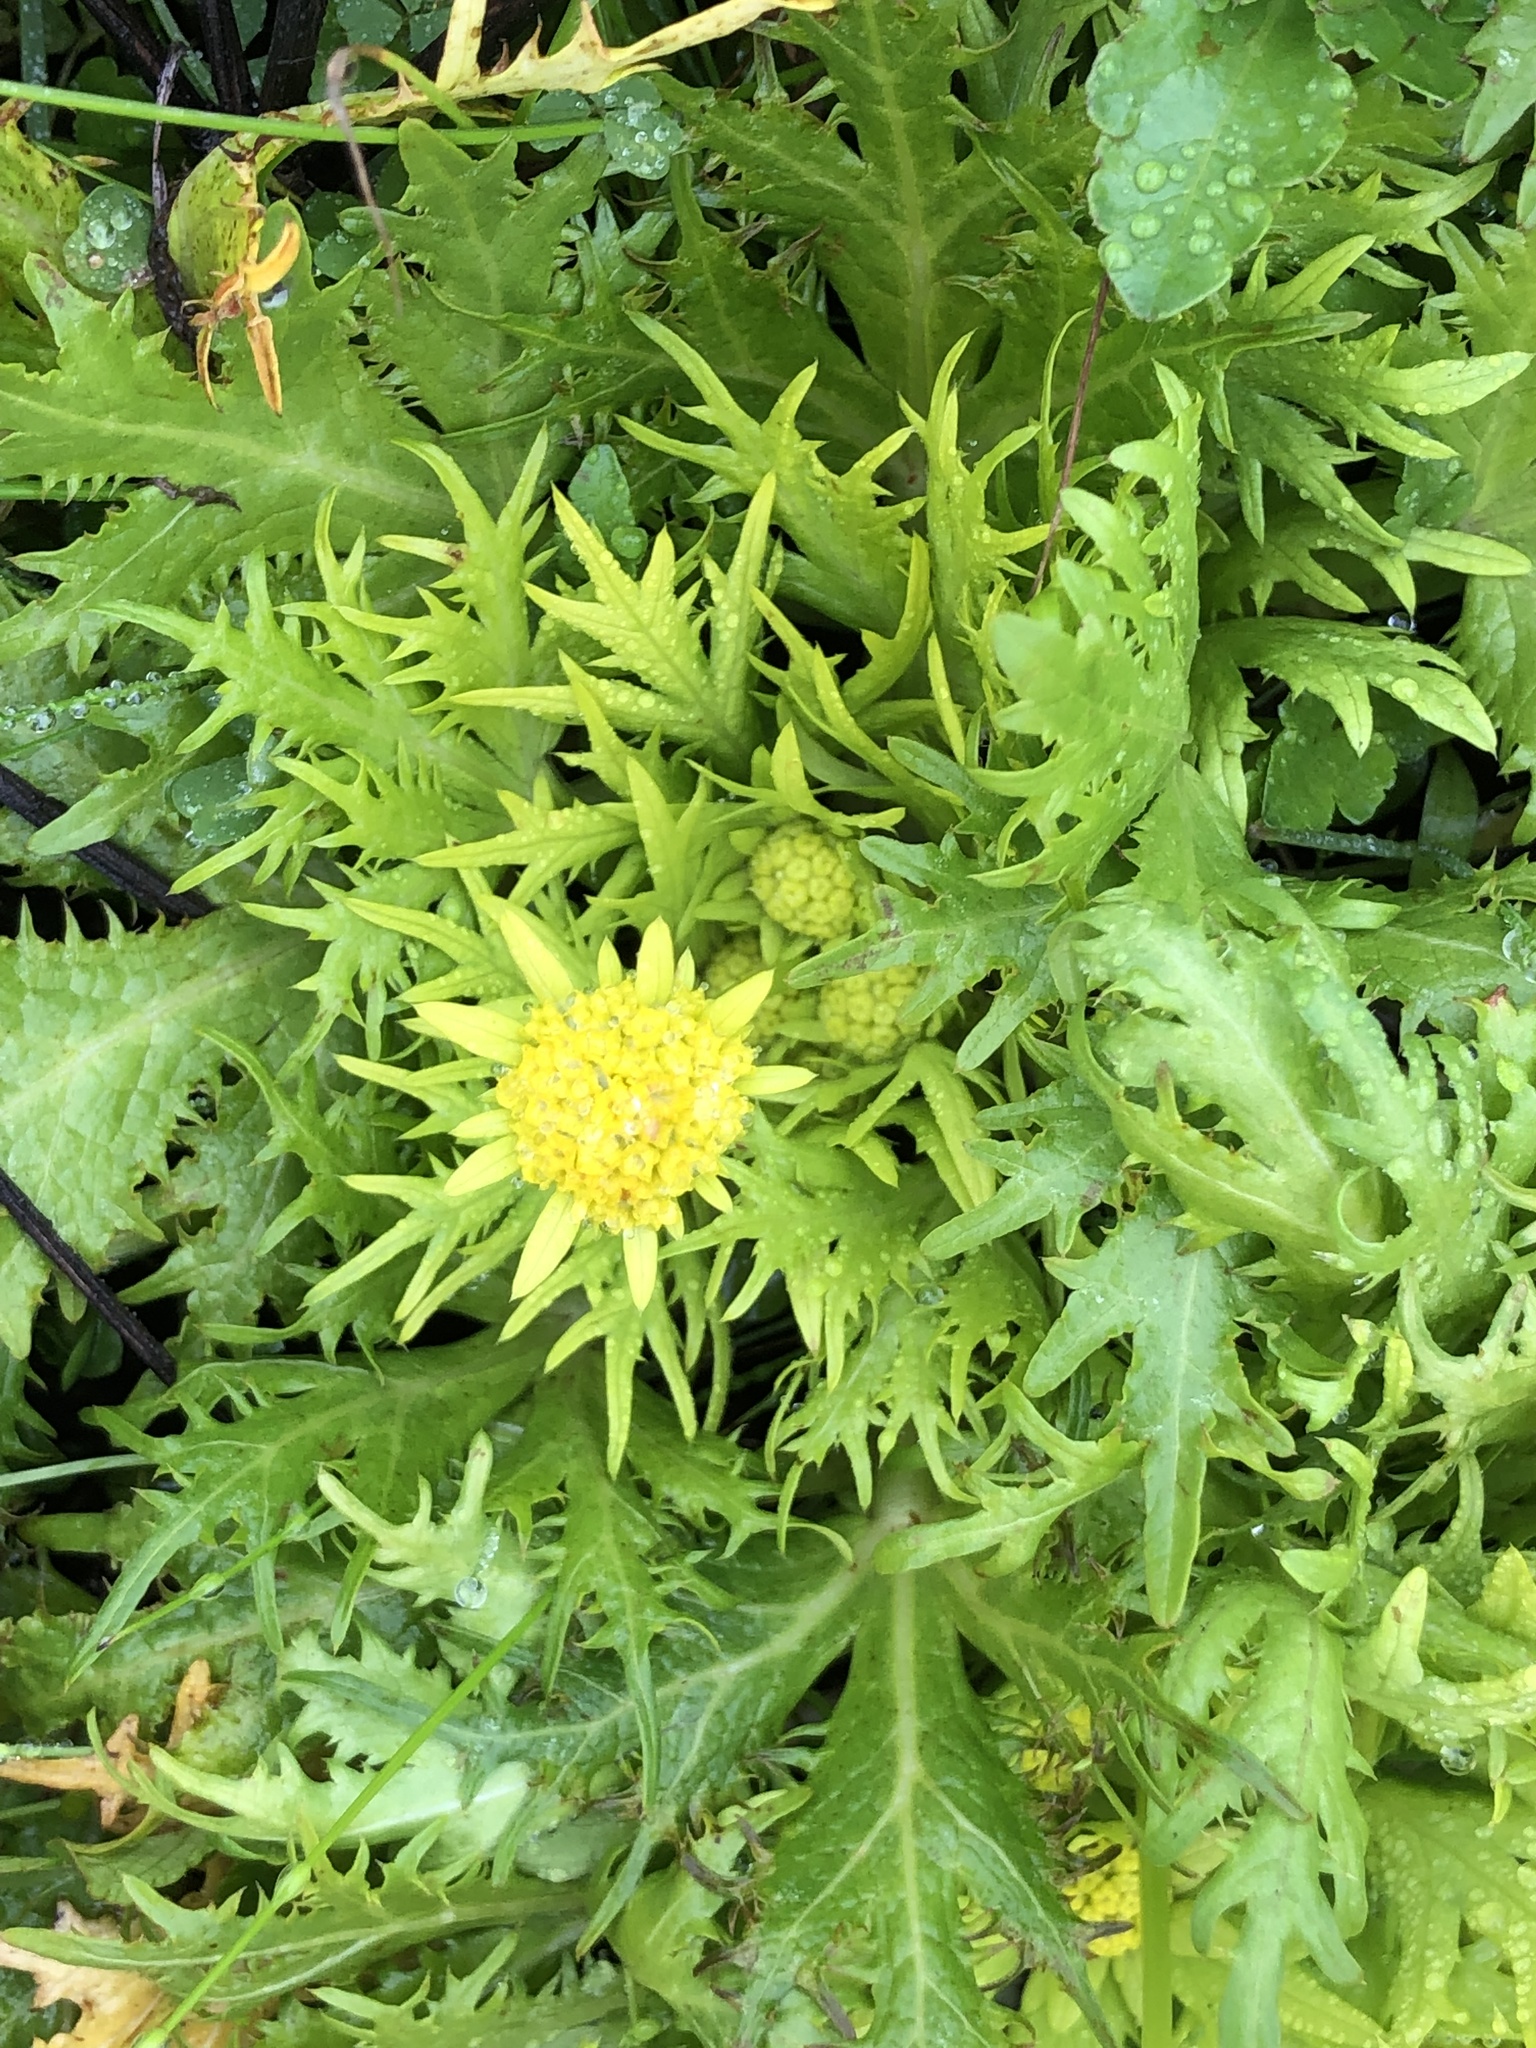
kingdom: Plantae
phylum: Tracheophyta
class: Magnoliopsida
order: Apiales
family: Apiaceae
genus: Sanicula
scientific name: Sanicula arctopoides
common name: Footsteps-of-spring
